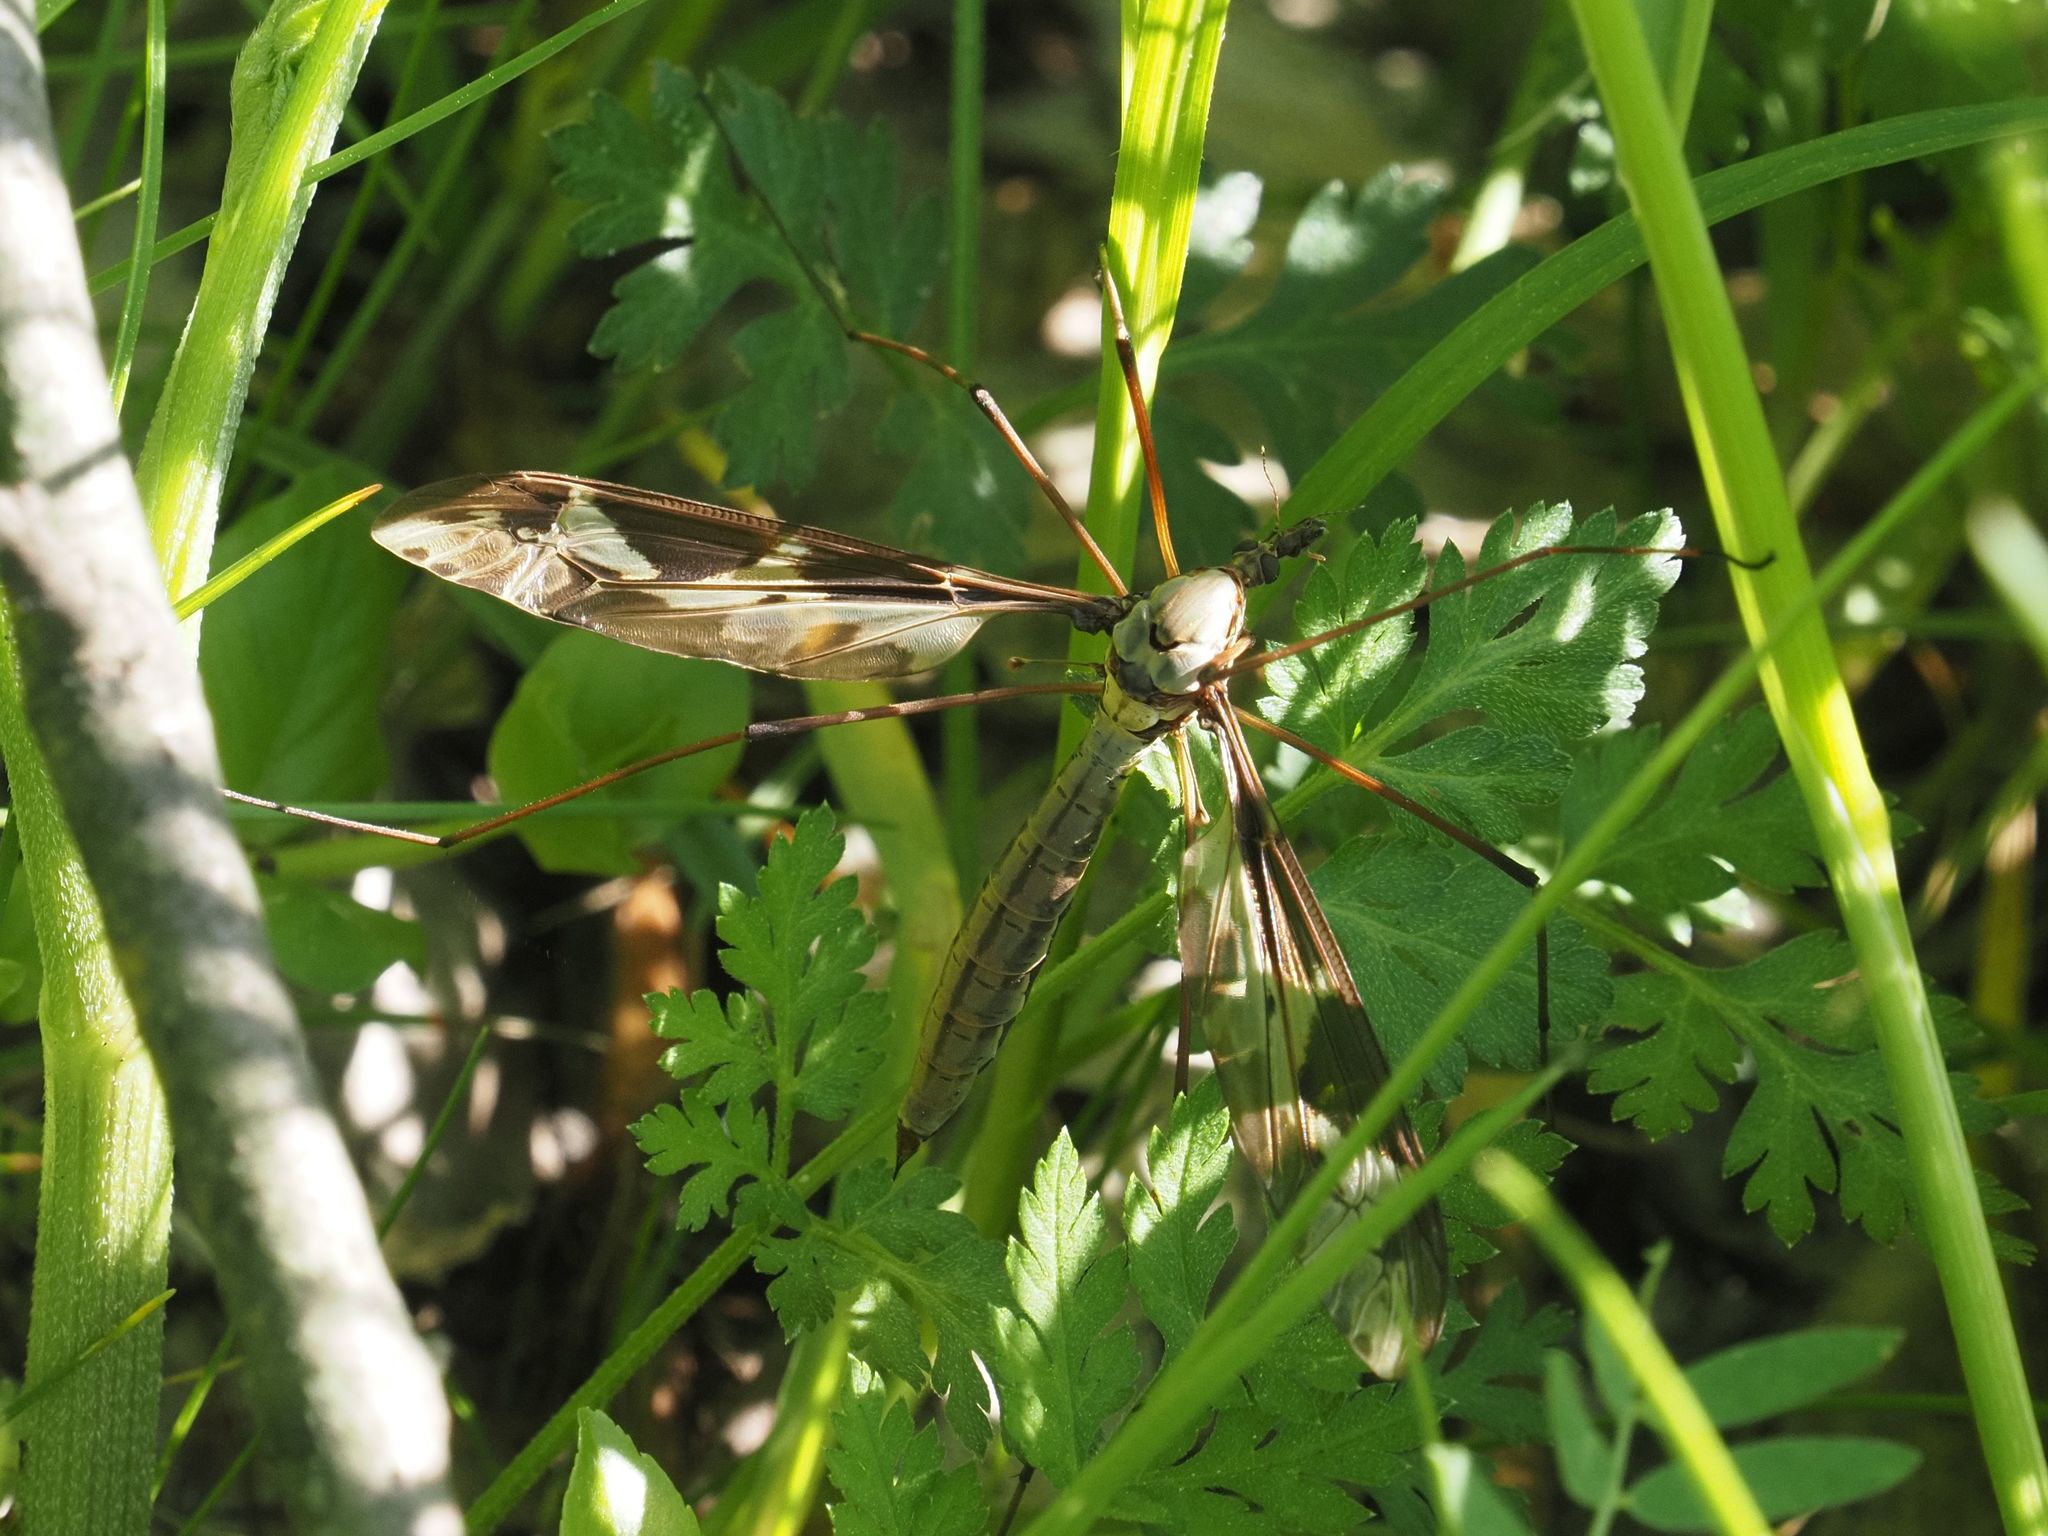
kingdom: Animalia
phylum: Arthropoda
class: Insecta
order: Diptera
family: Tipulidae
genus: Tipula
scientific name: Tipula maxima
